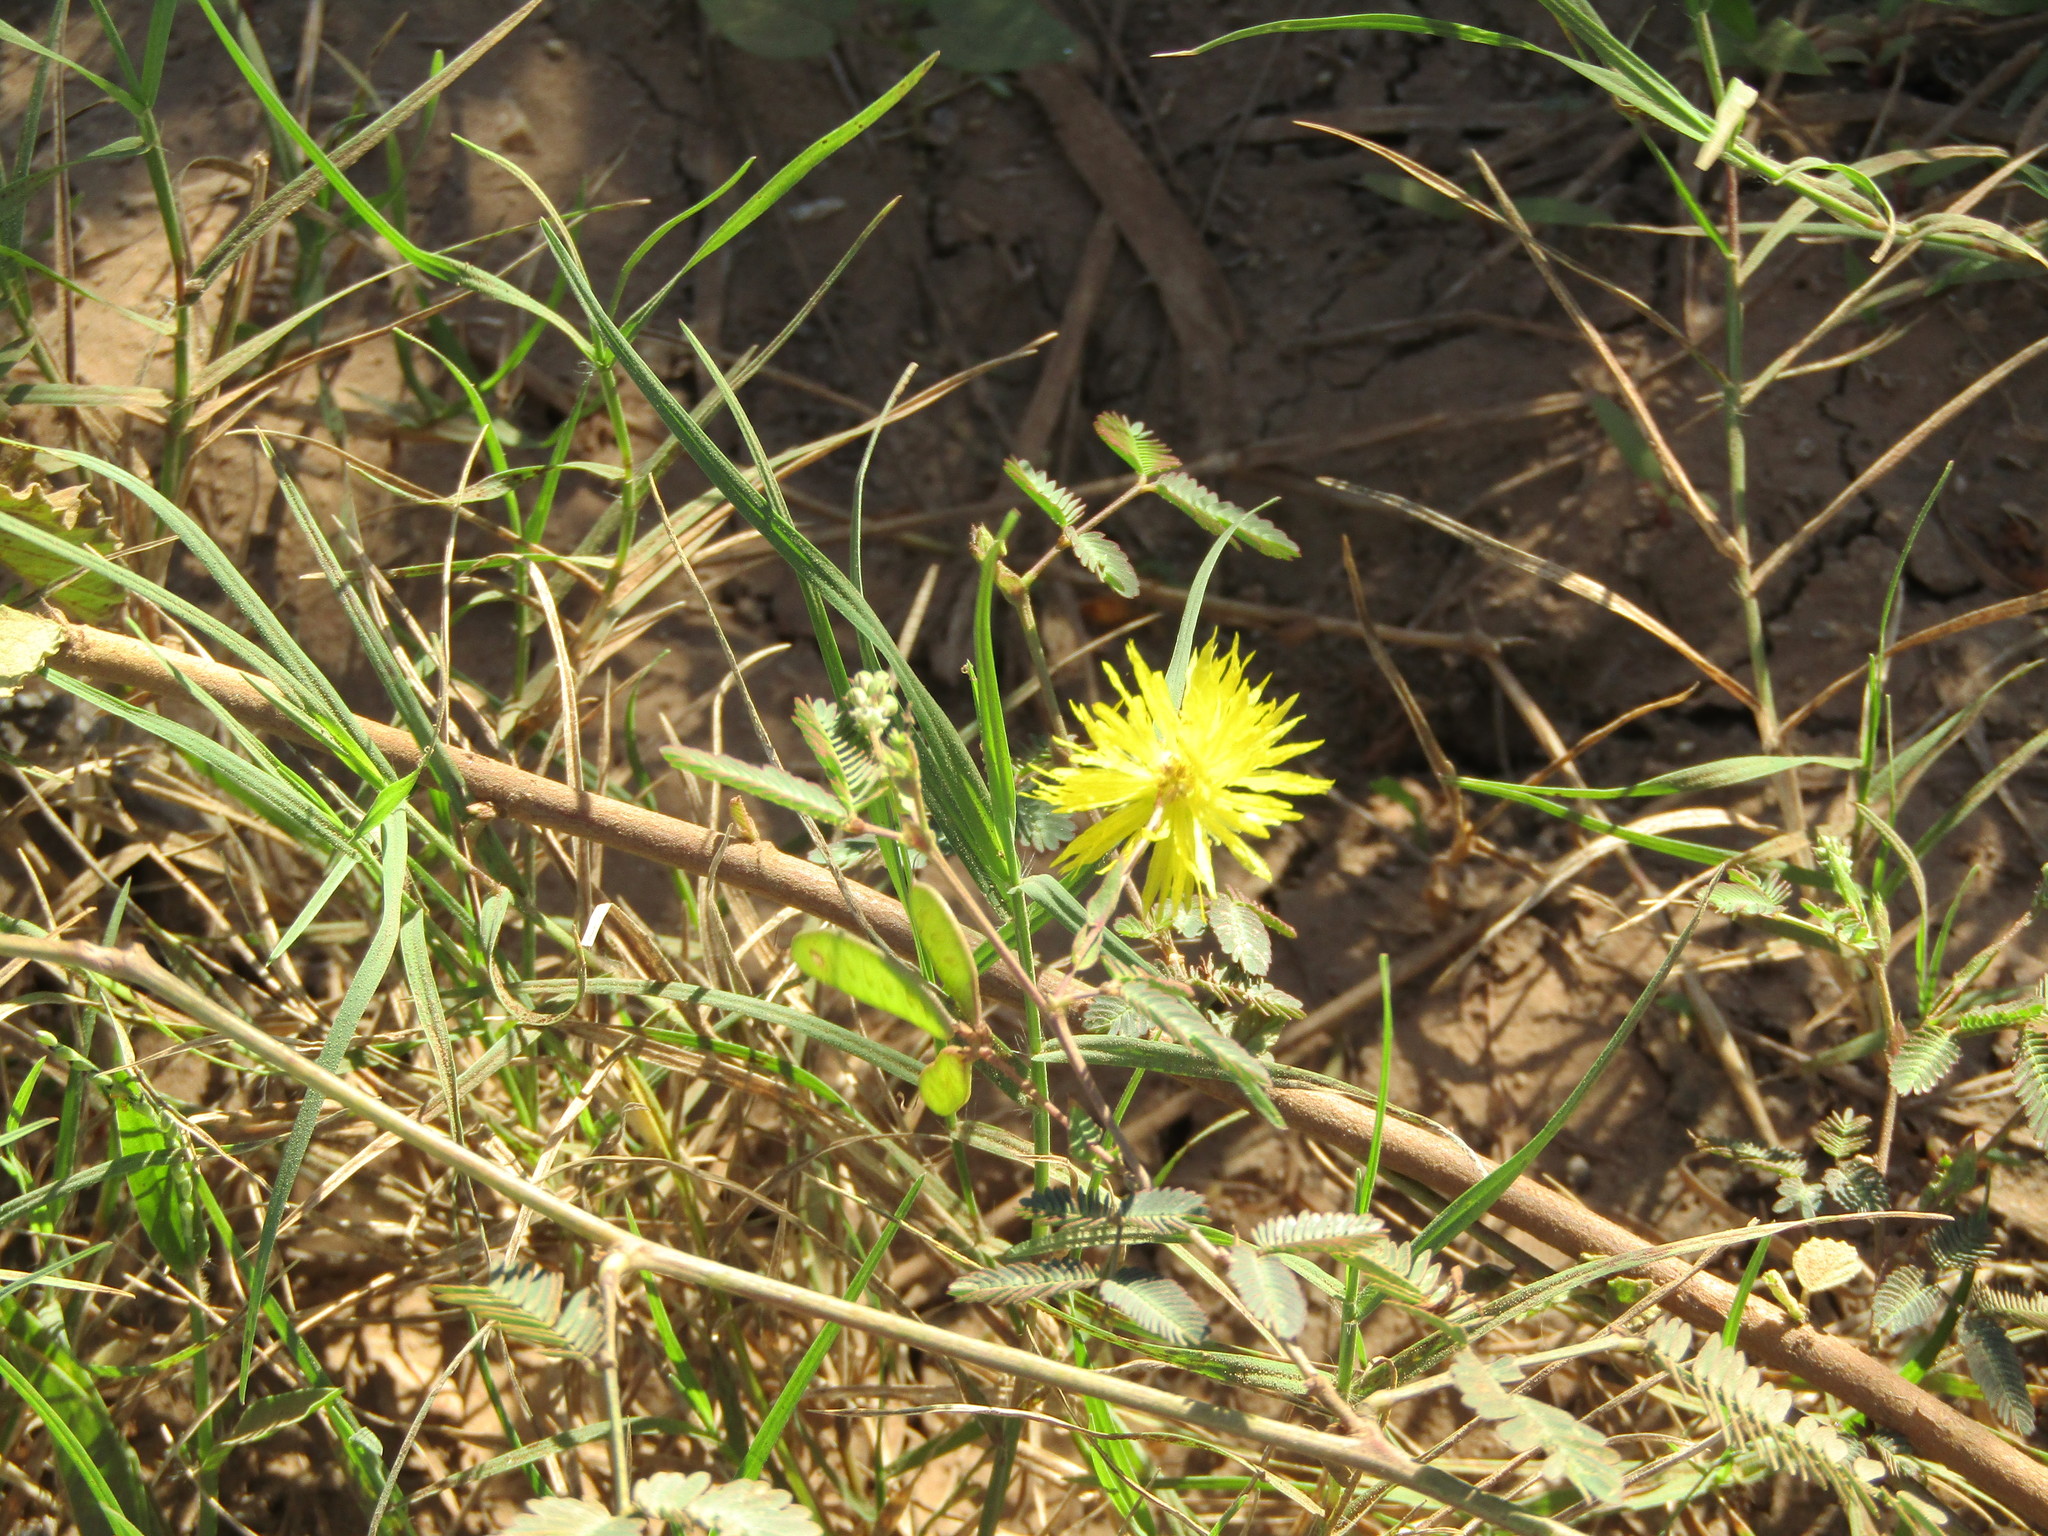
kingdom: Plantae
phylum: Tracheophyta
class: Magnoliopsida
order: Fabales
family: Fabaceae
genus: Neptunia
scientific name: Neptunia plena
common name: Dead and awake
